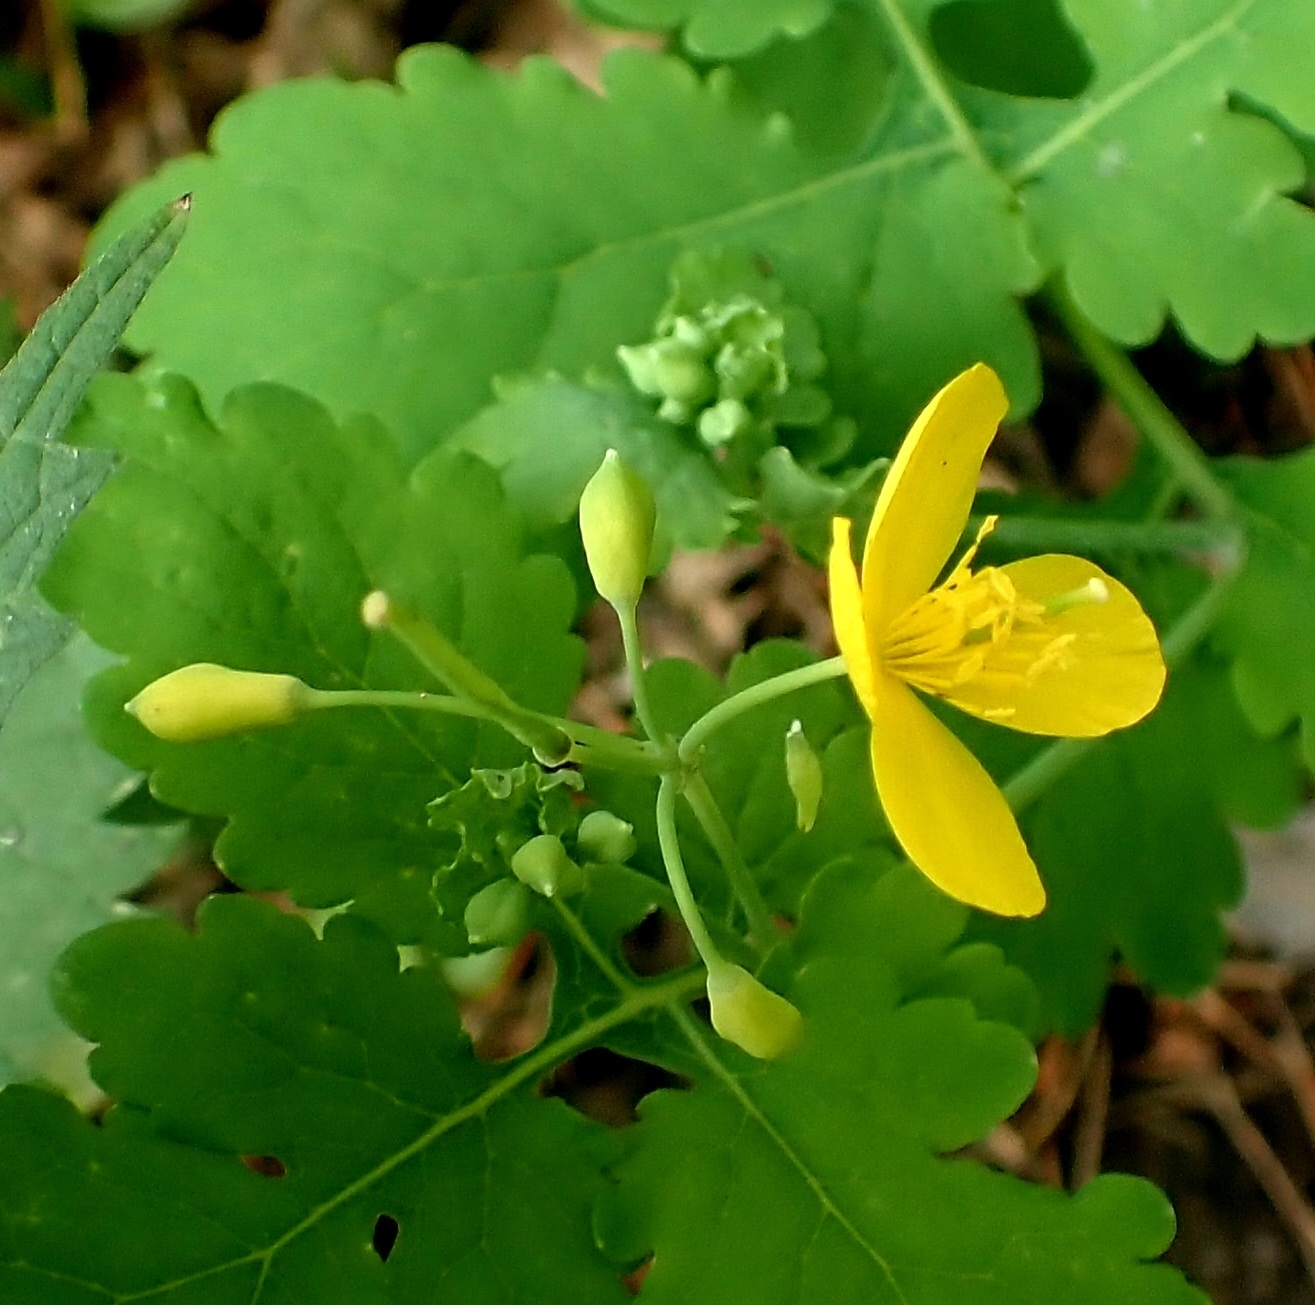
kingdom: Plantae
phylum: Tracheophyta
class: Magnoliopsida
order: Ranunculales
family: Papaveraceae
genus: Chelidonium
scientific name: Chelidonium majus
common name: Greater celandine
